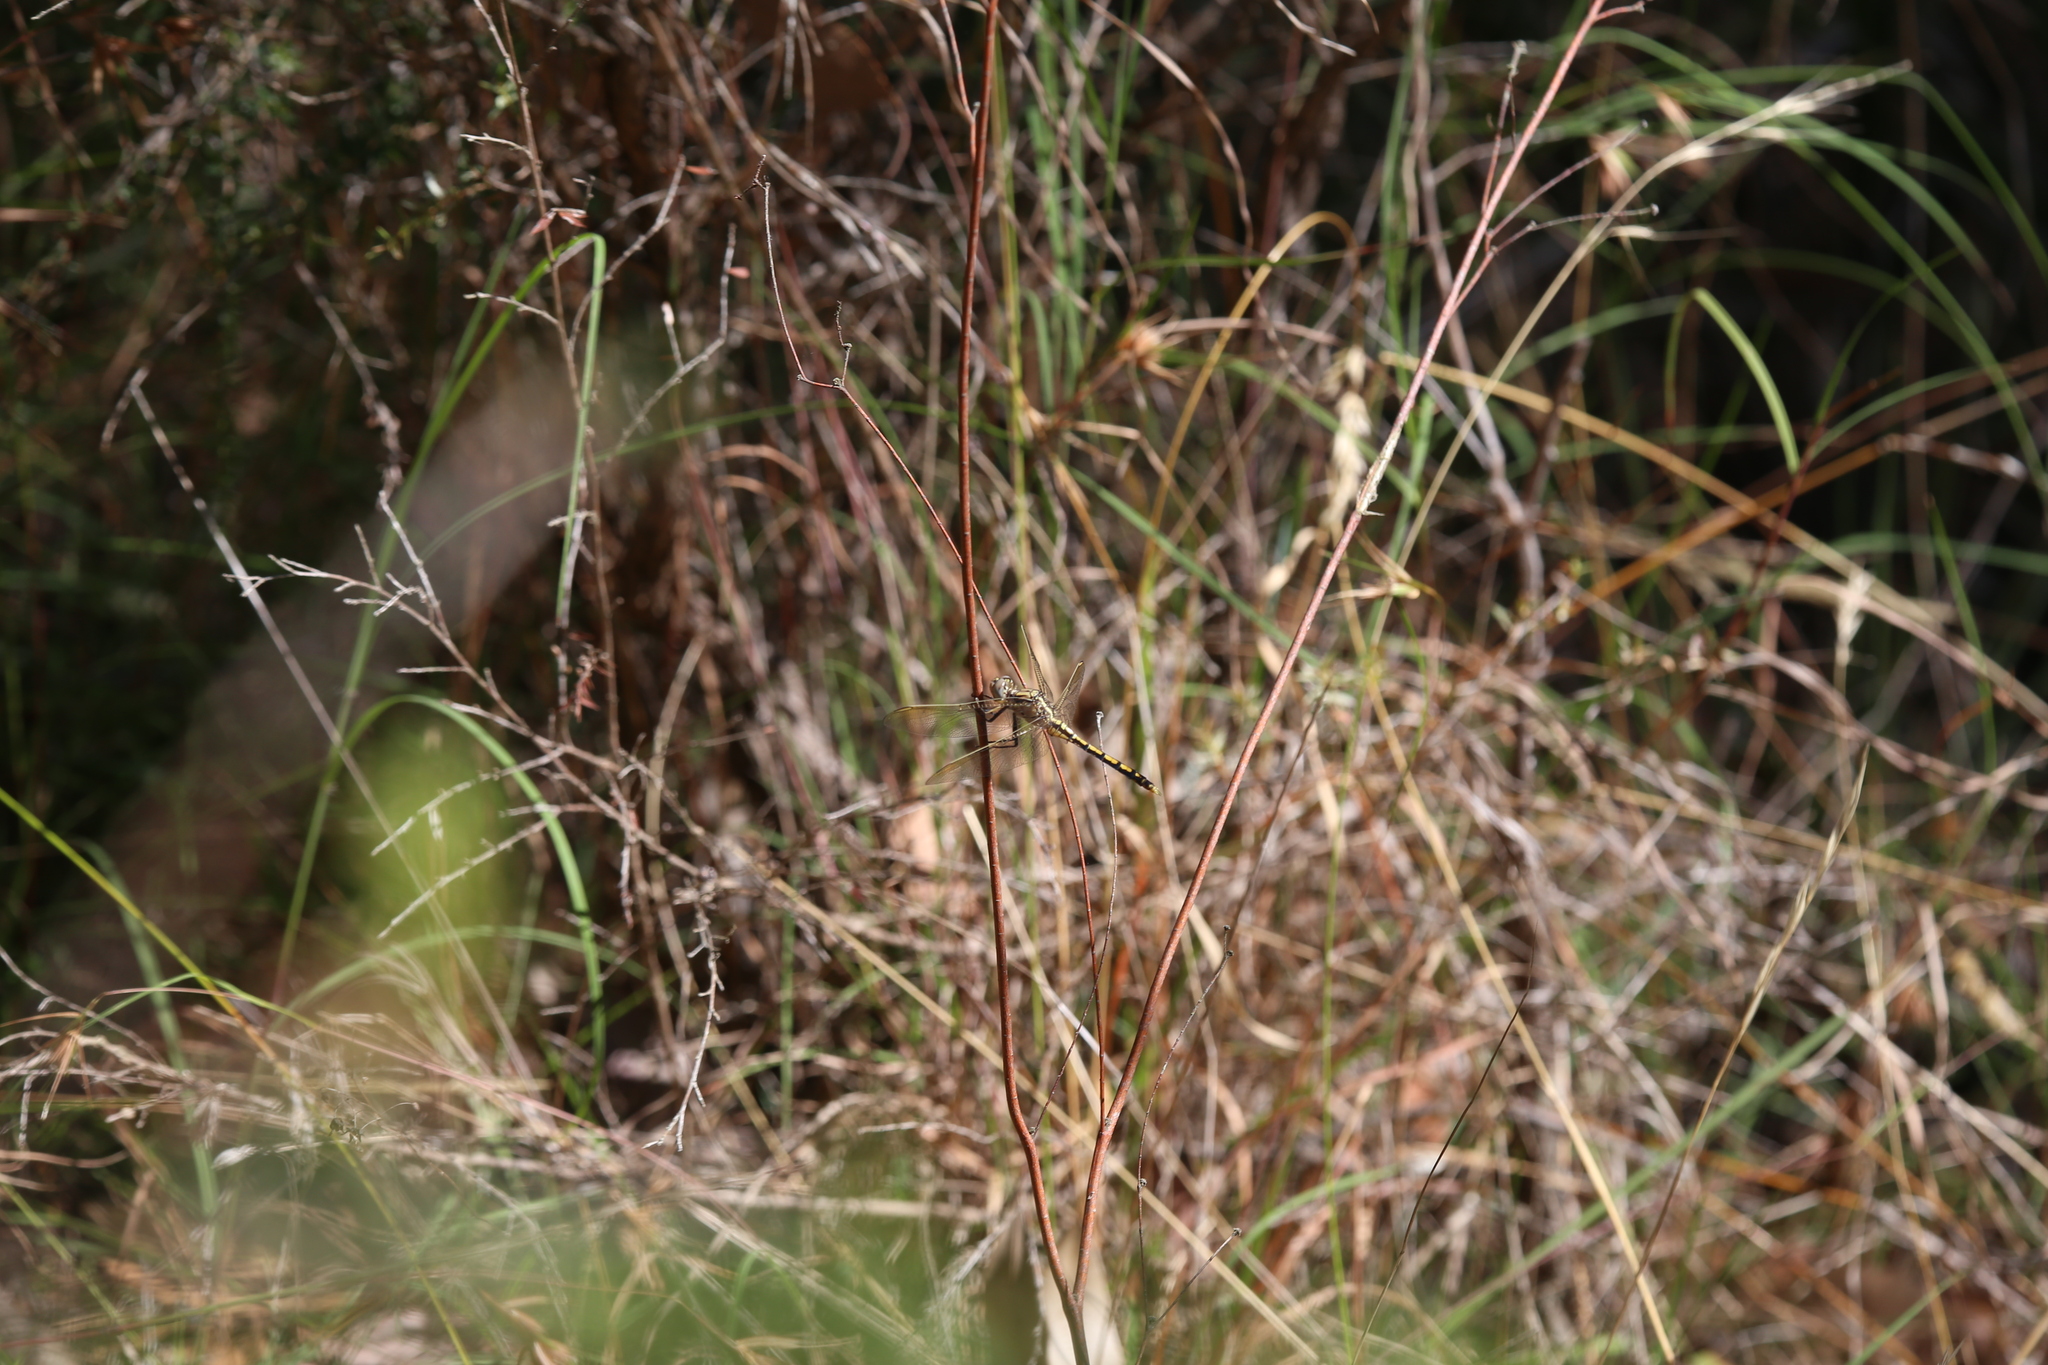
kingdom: Animalia
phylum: Arthropoda
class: Insecta
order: Odonata
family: Libellulidae
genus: Orthetrum
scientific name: Orthetrum caledonicum
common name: Blue skimmer
